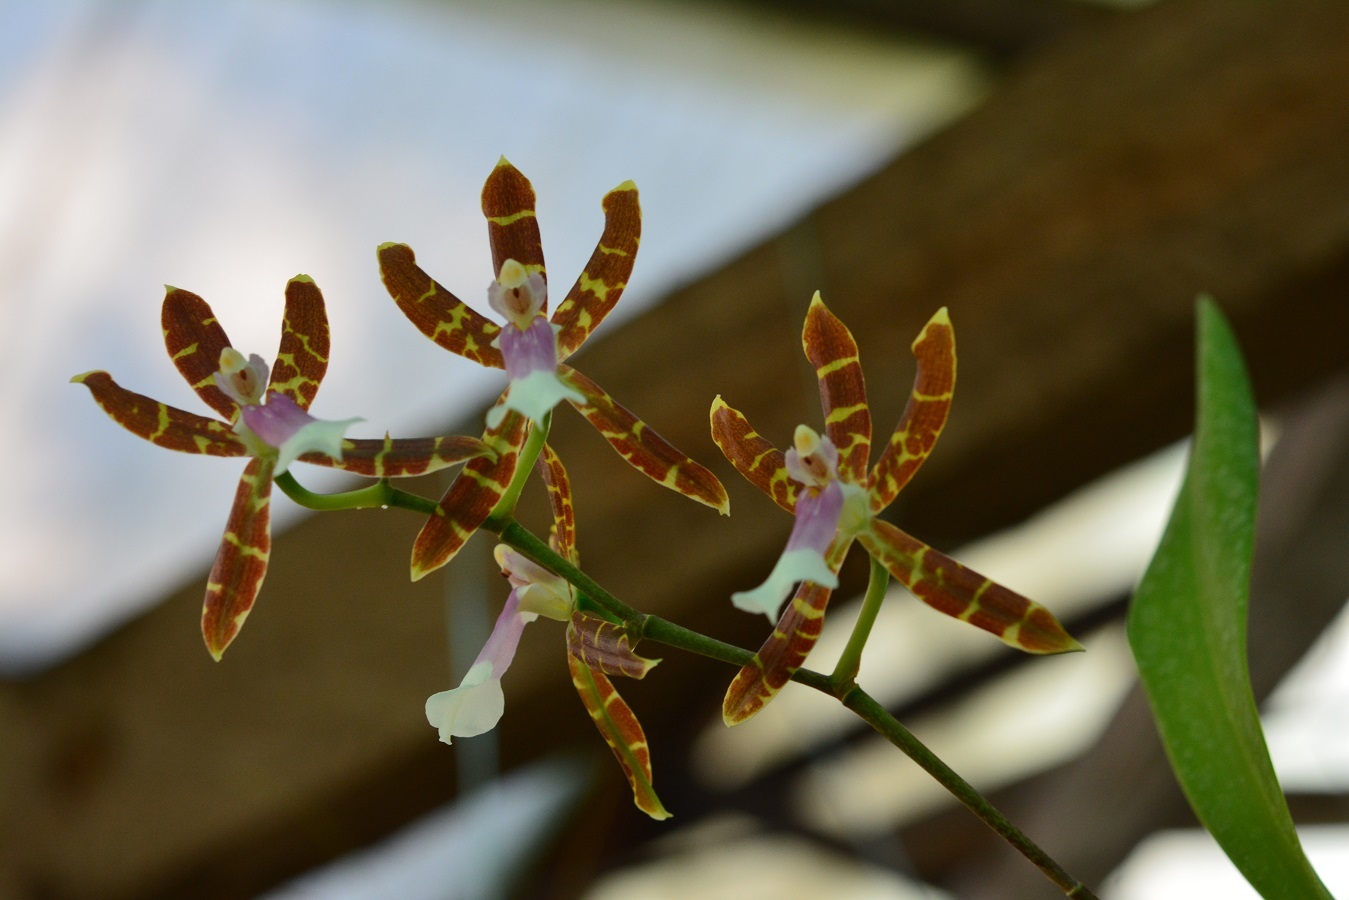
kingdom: Plantae
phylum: Tracheophyta
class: Liliopsida
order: Asparagales
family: Orchidaceae
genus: Oncidium
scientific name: Oncidium laeve
